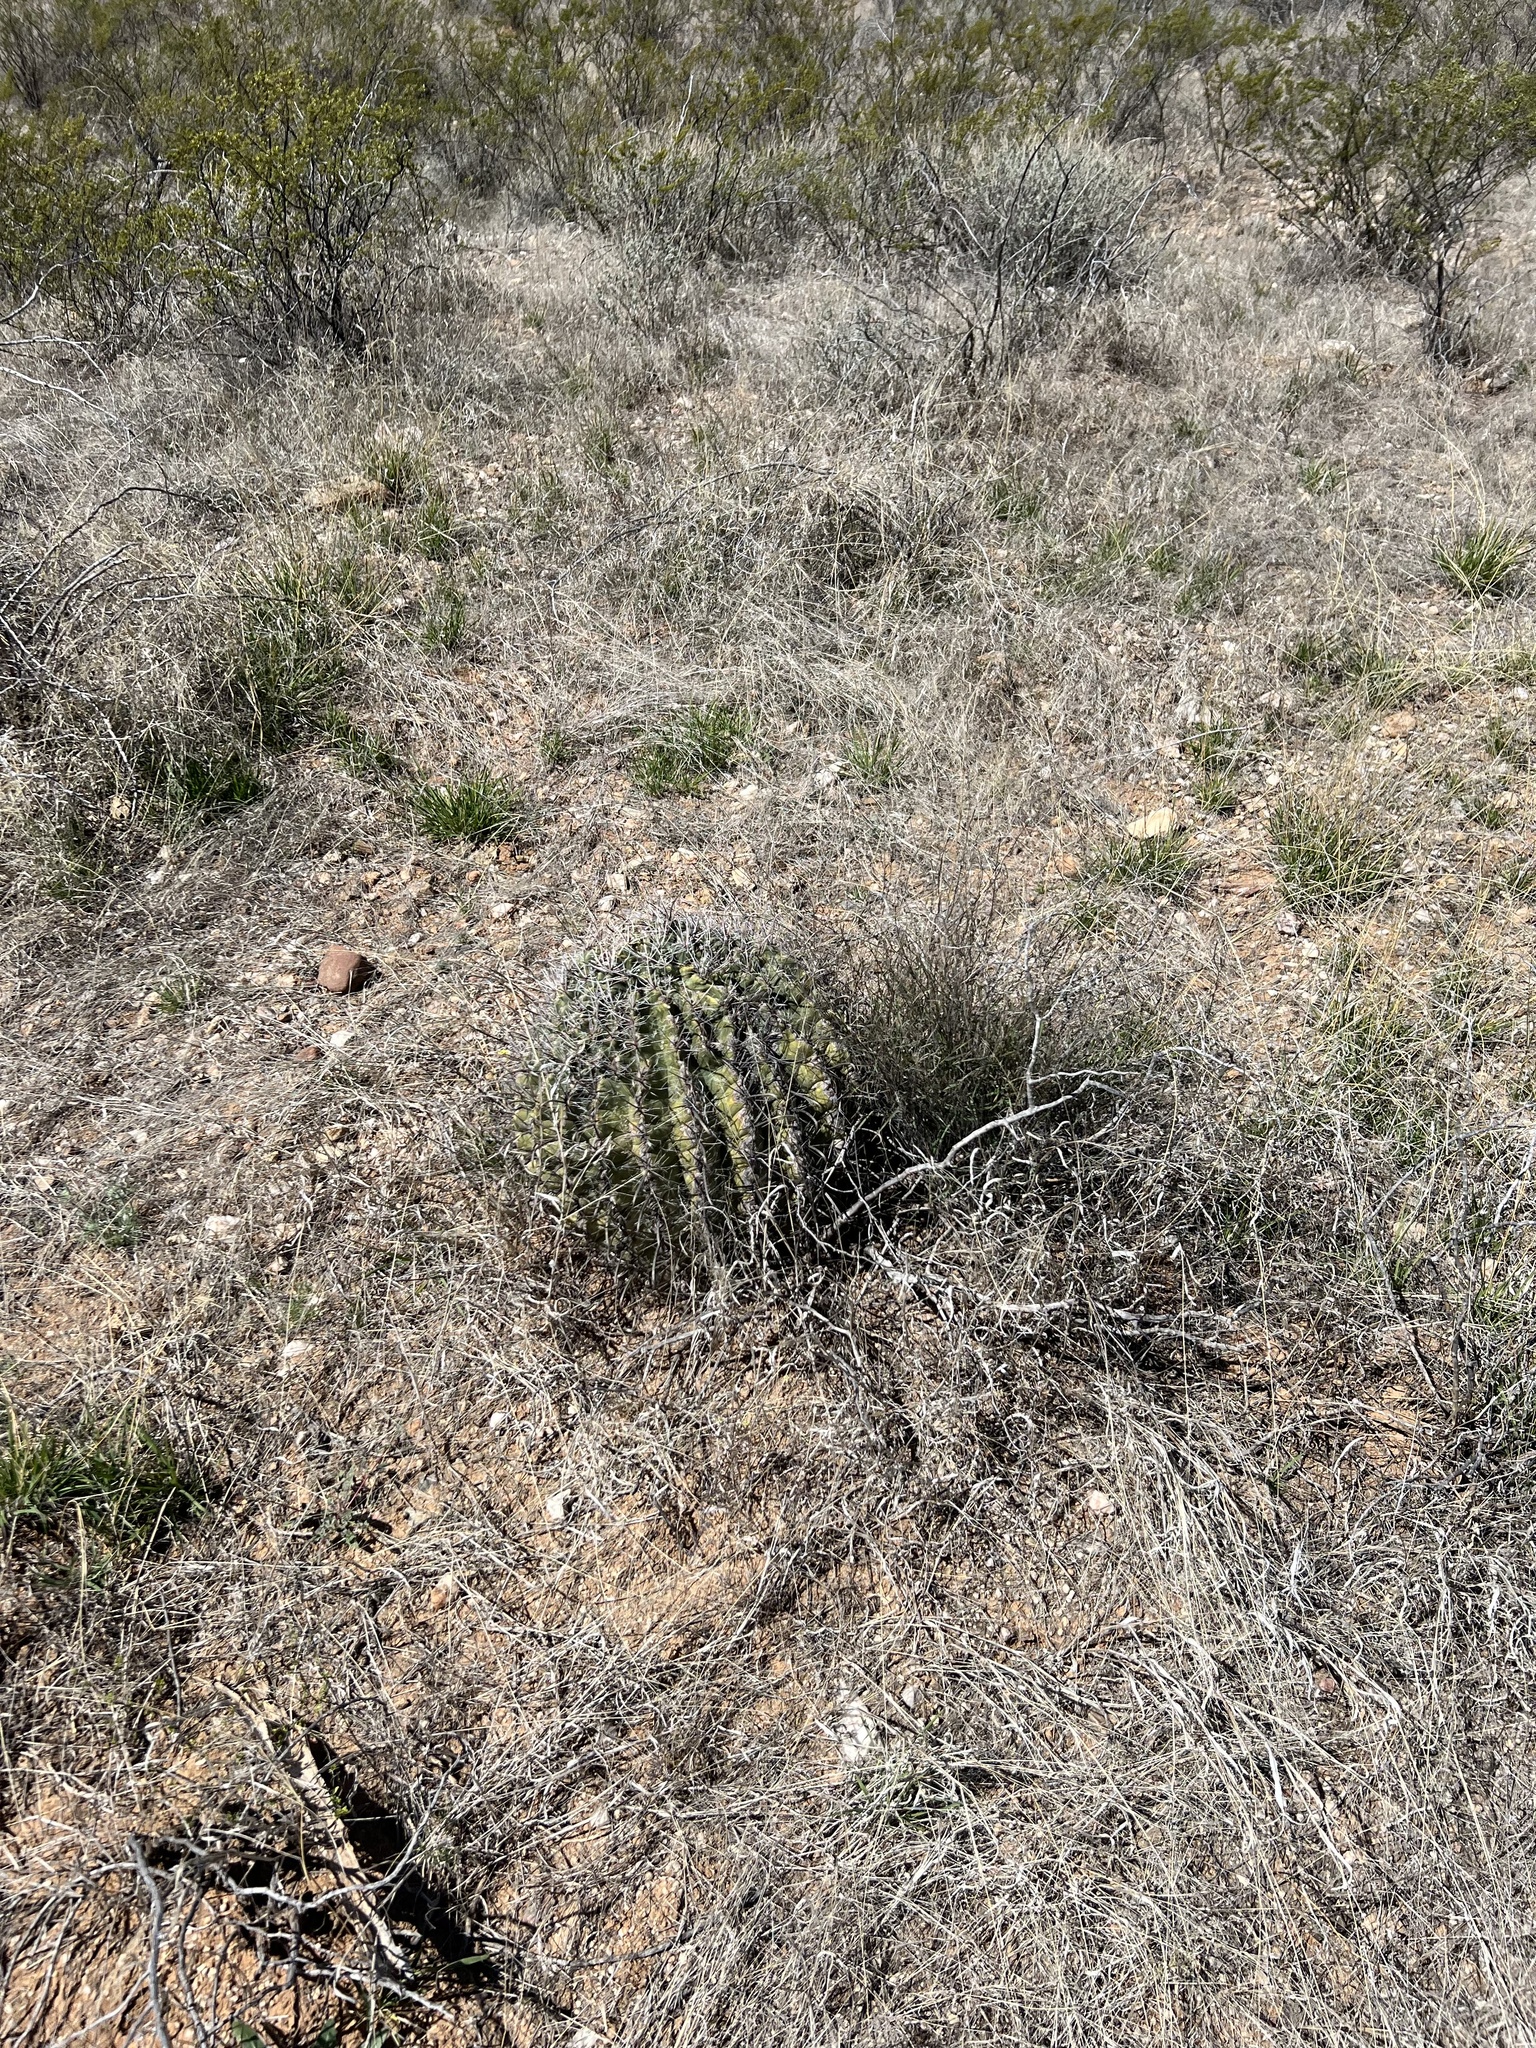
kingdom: Plantae
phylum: Tracheophyta
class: Magnoliopsida
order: Caryophyllales
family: Cactaceae
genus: Ferocactus
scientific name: Ferocactus wislizeni
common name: Candy barrel cactus
